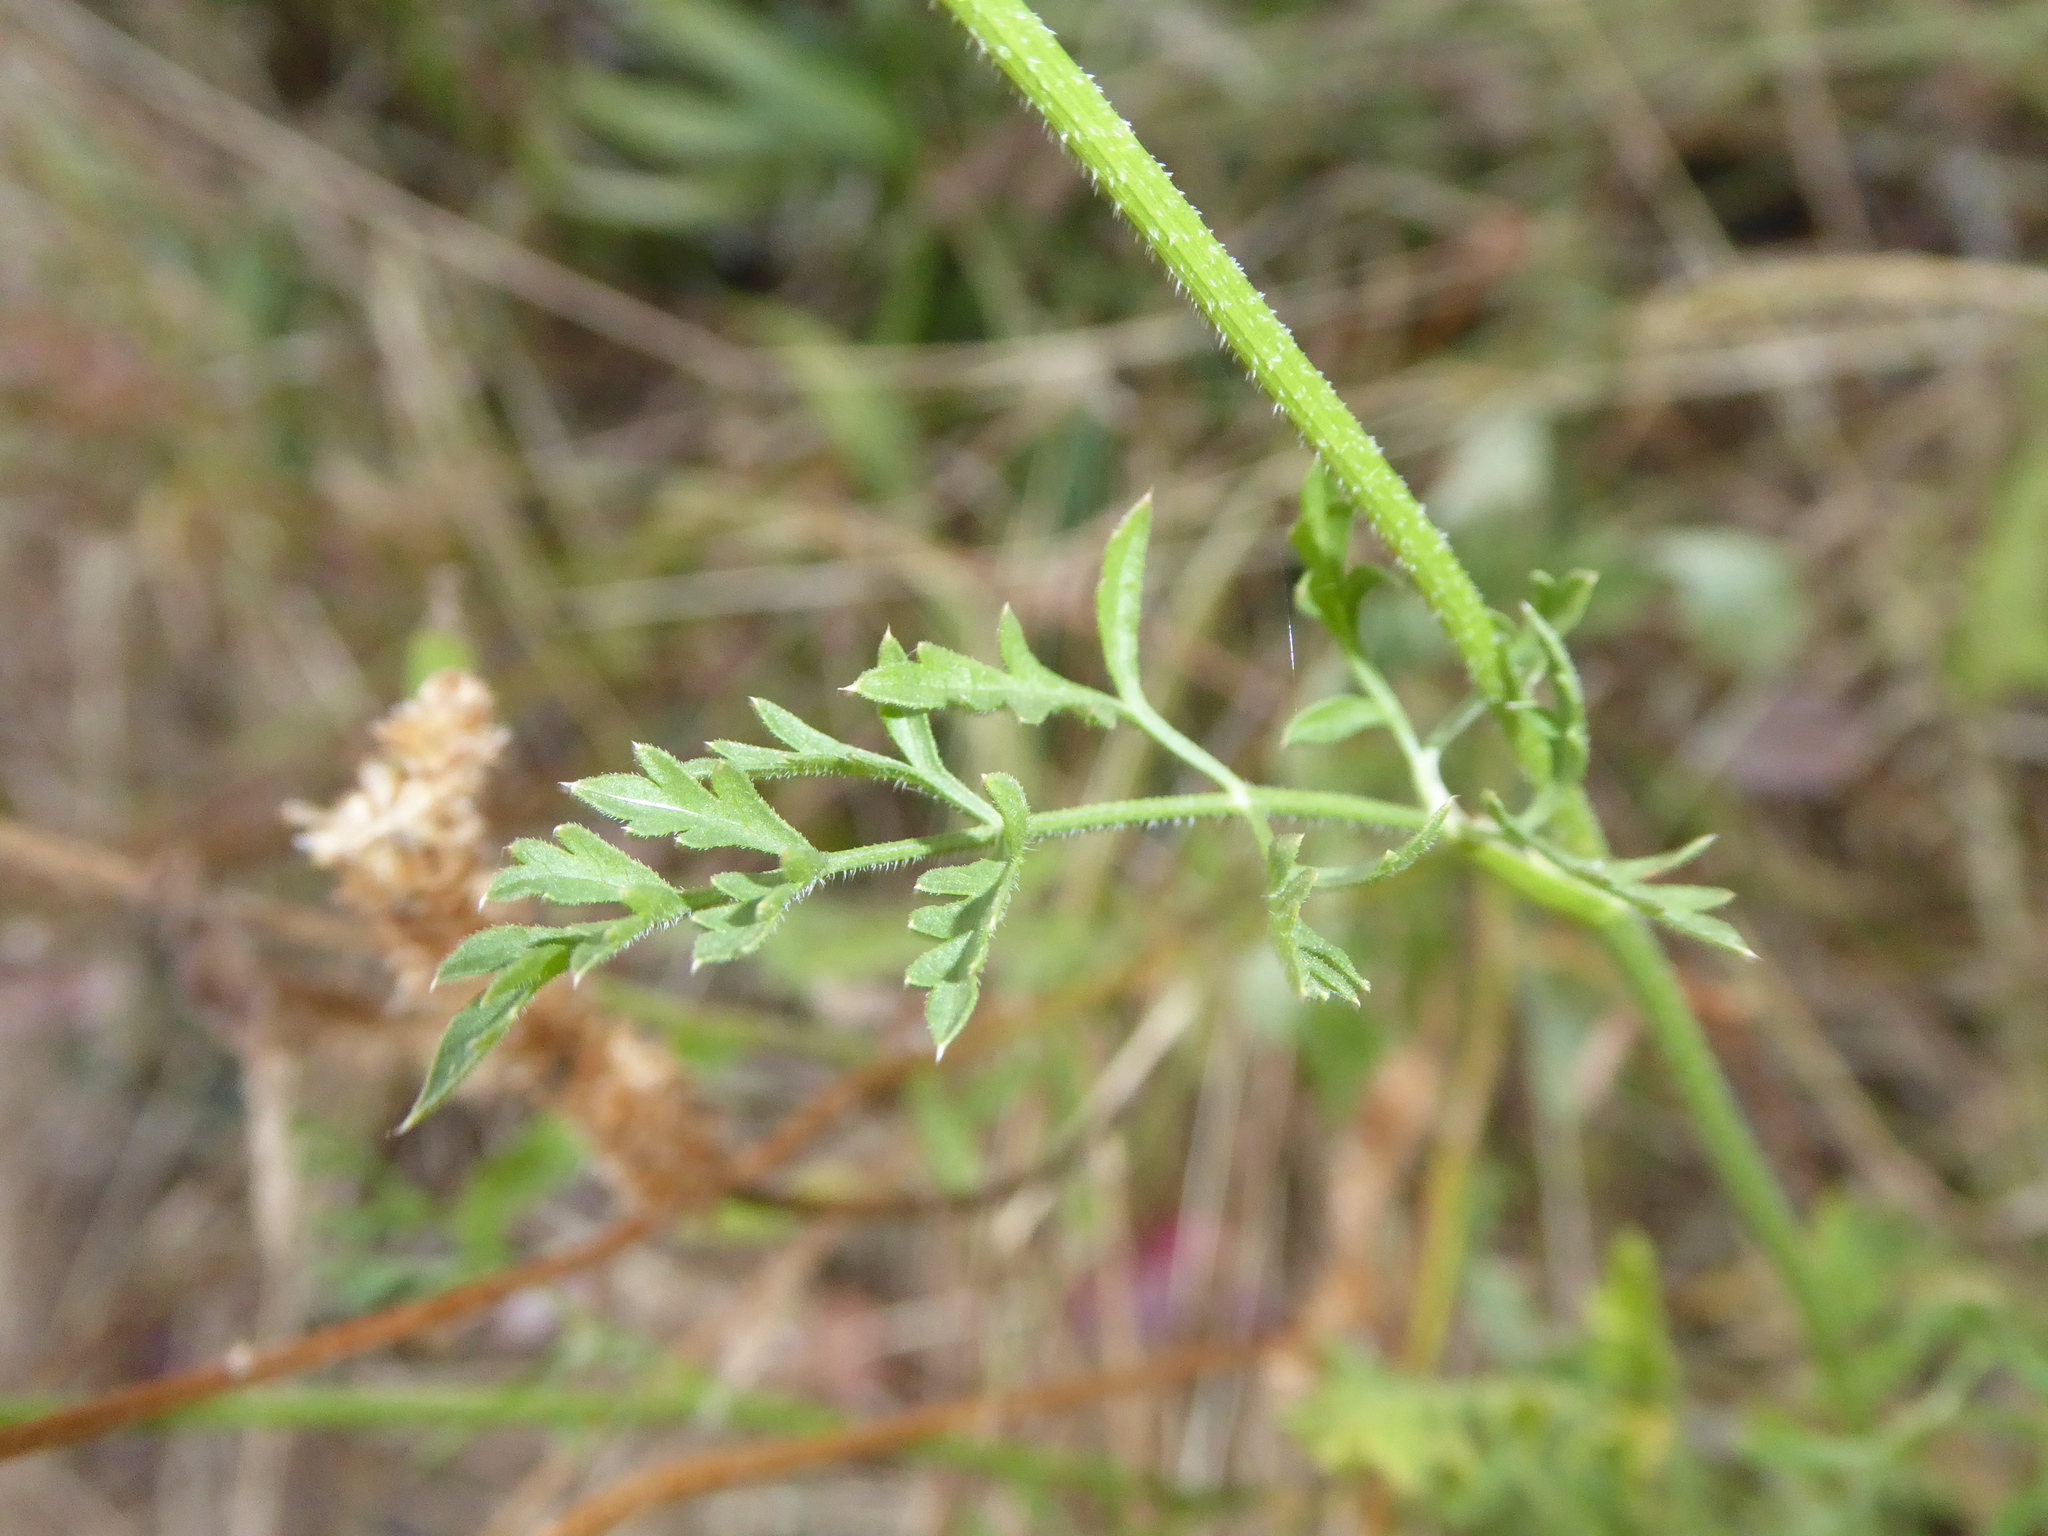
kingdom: Plantae
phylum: Tracheophyta
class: Magnoliopsida
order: Apiales
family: Apiaceae
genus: Daucus
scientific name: Daucus carota
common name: Wild carrot
